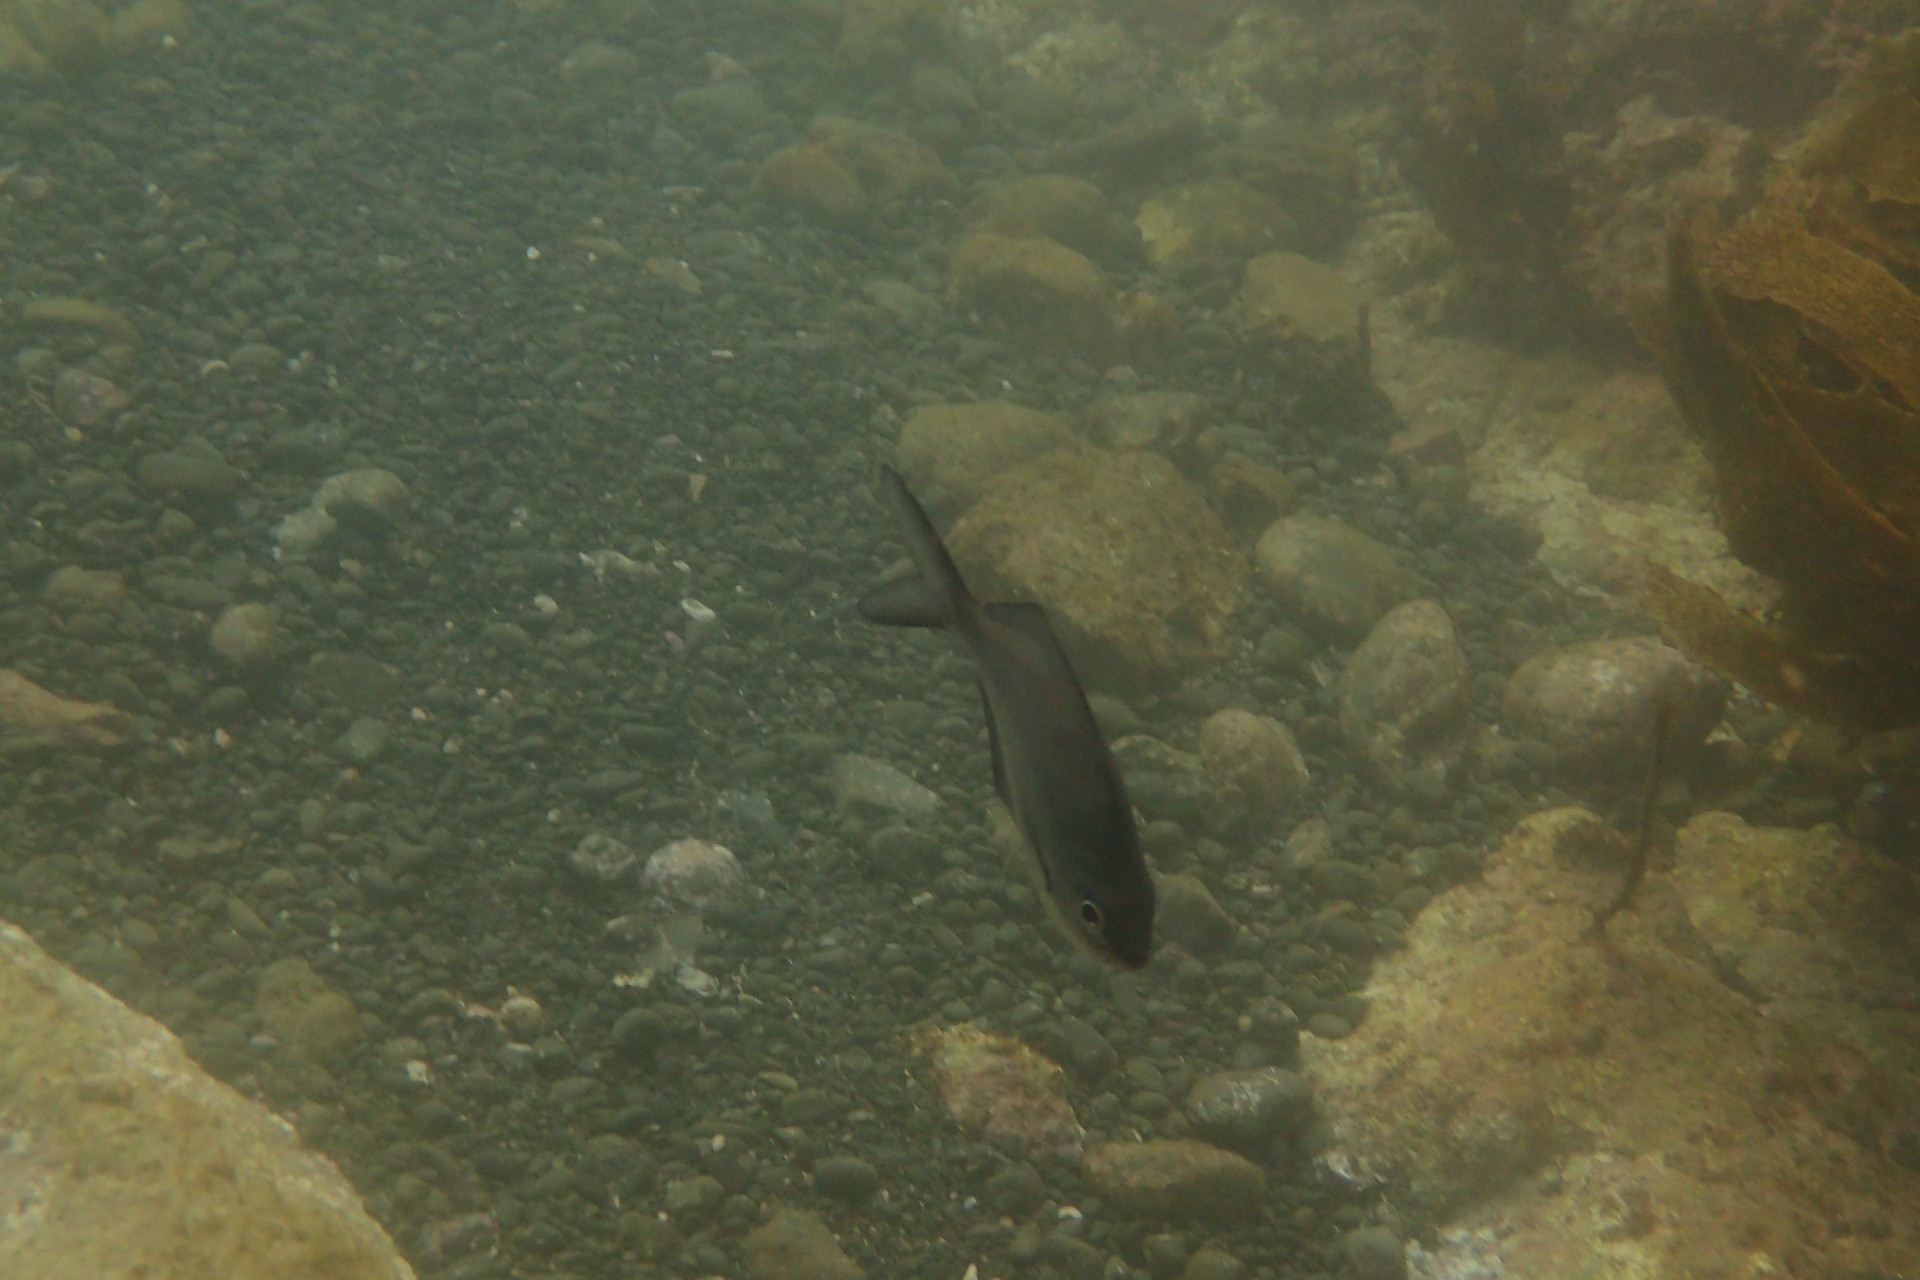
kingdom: Animalia
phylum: Chordata
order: Perciformes
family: Kyphosidae
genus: Scorpis
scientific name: Scorpis lineolata
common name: Sweep
